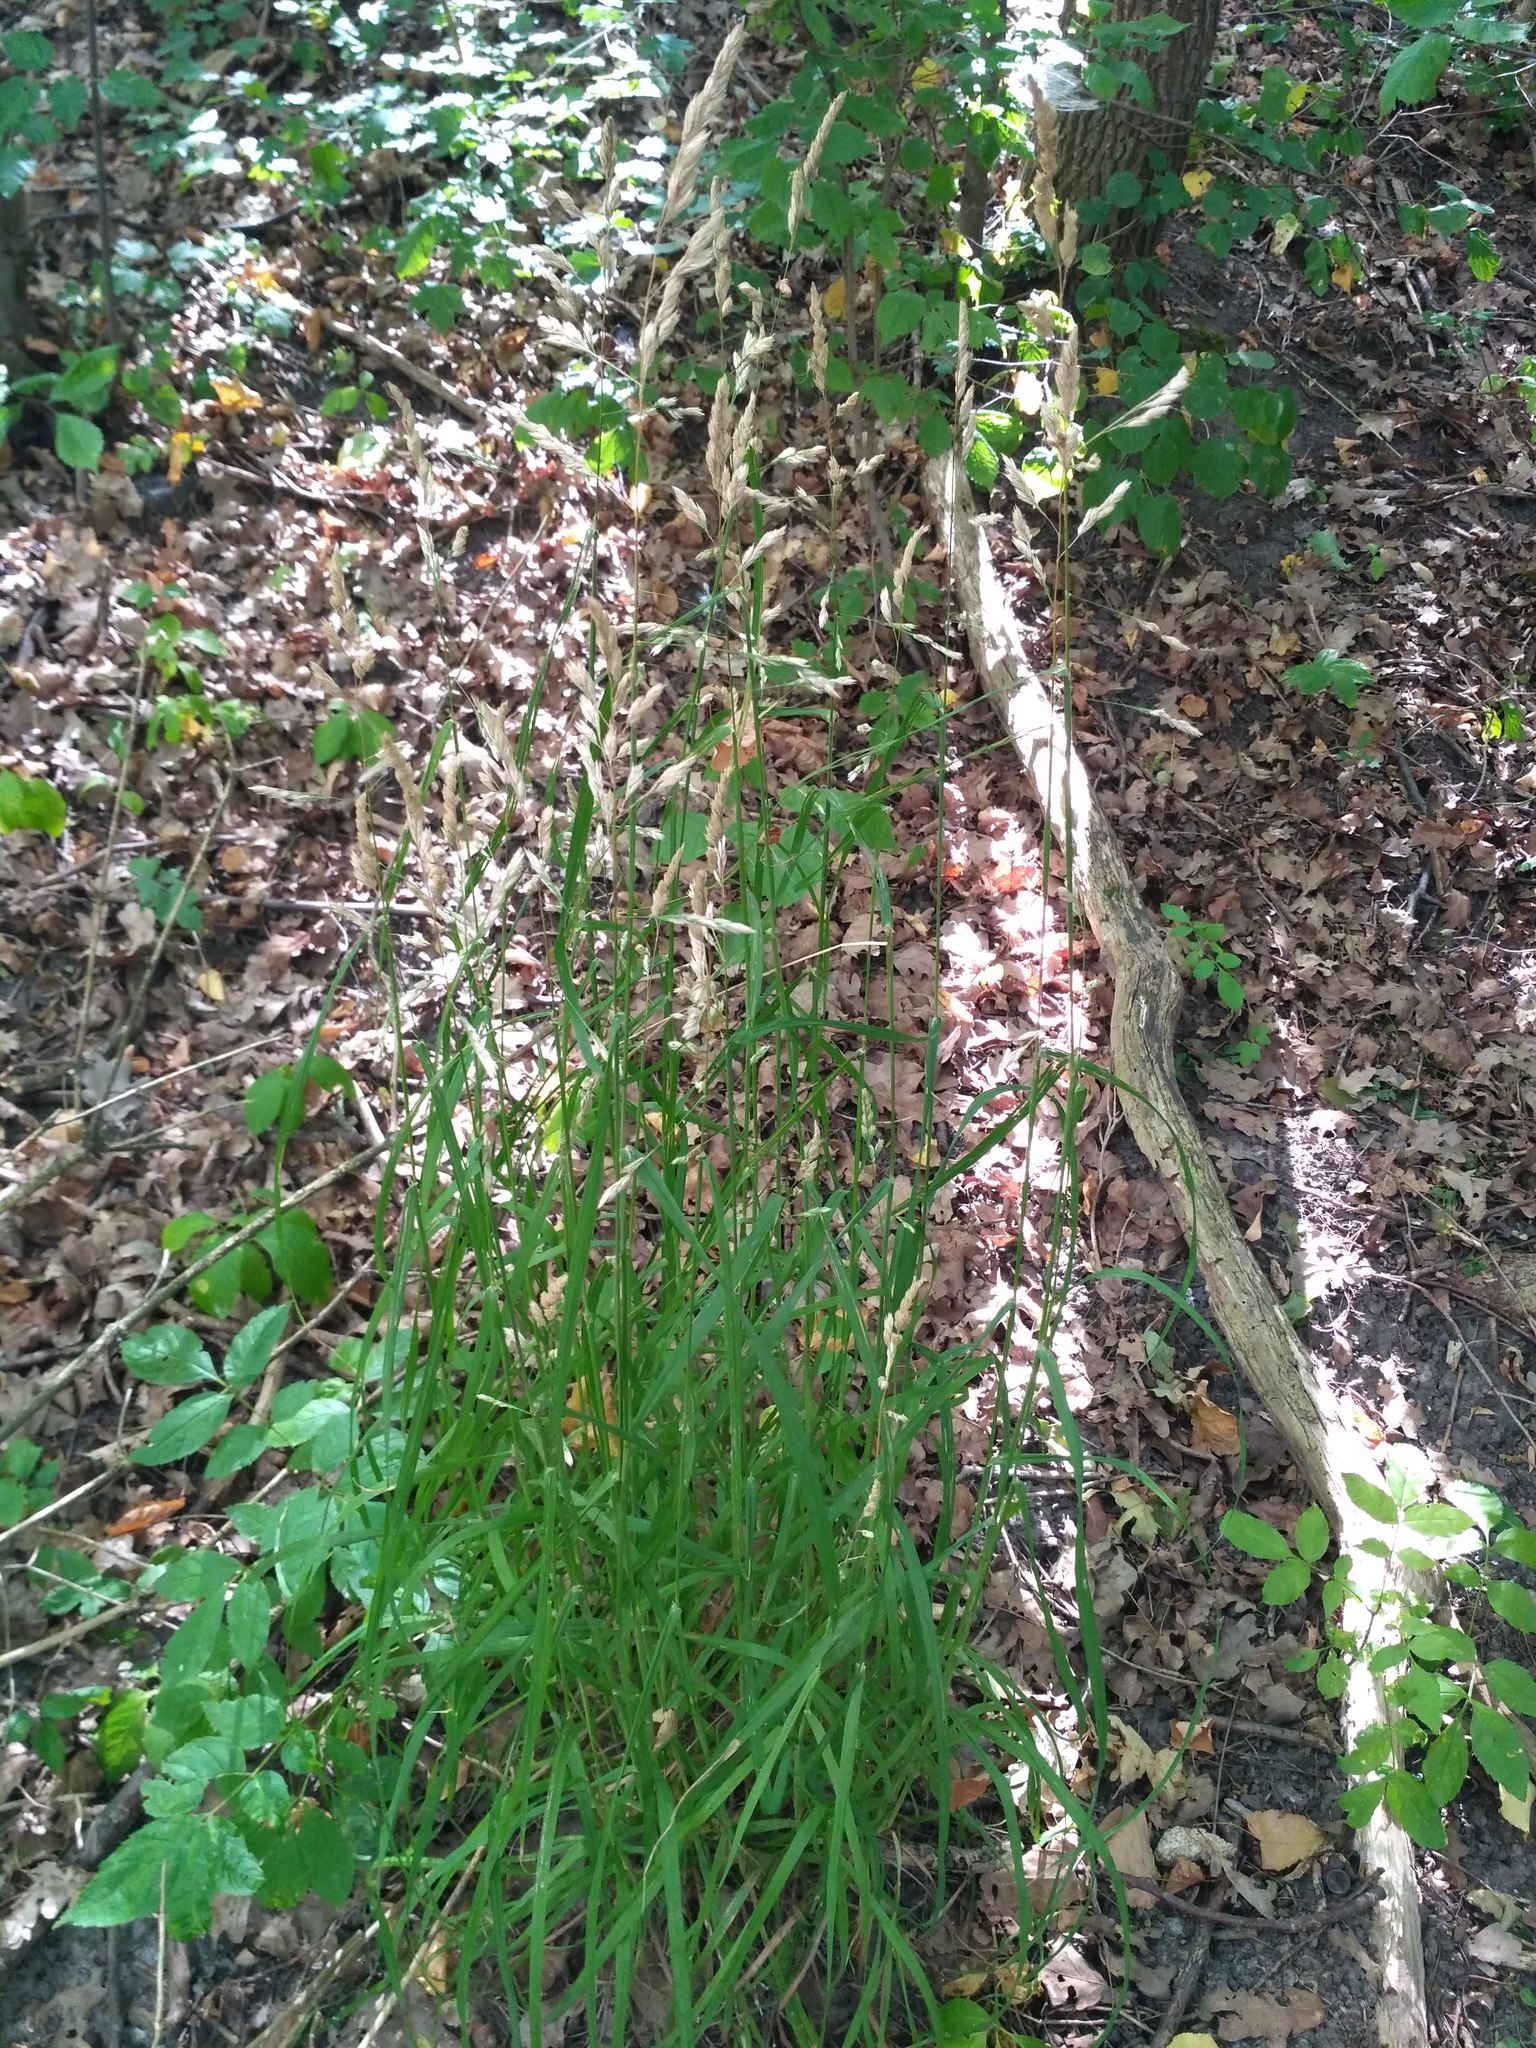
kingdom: Plantae
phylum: Tracheophyta
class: Liliopsida
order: Poales
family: Poaceae
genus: Dactylis
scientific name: Dactylis glomerata
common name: Orchardgrass
